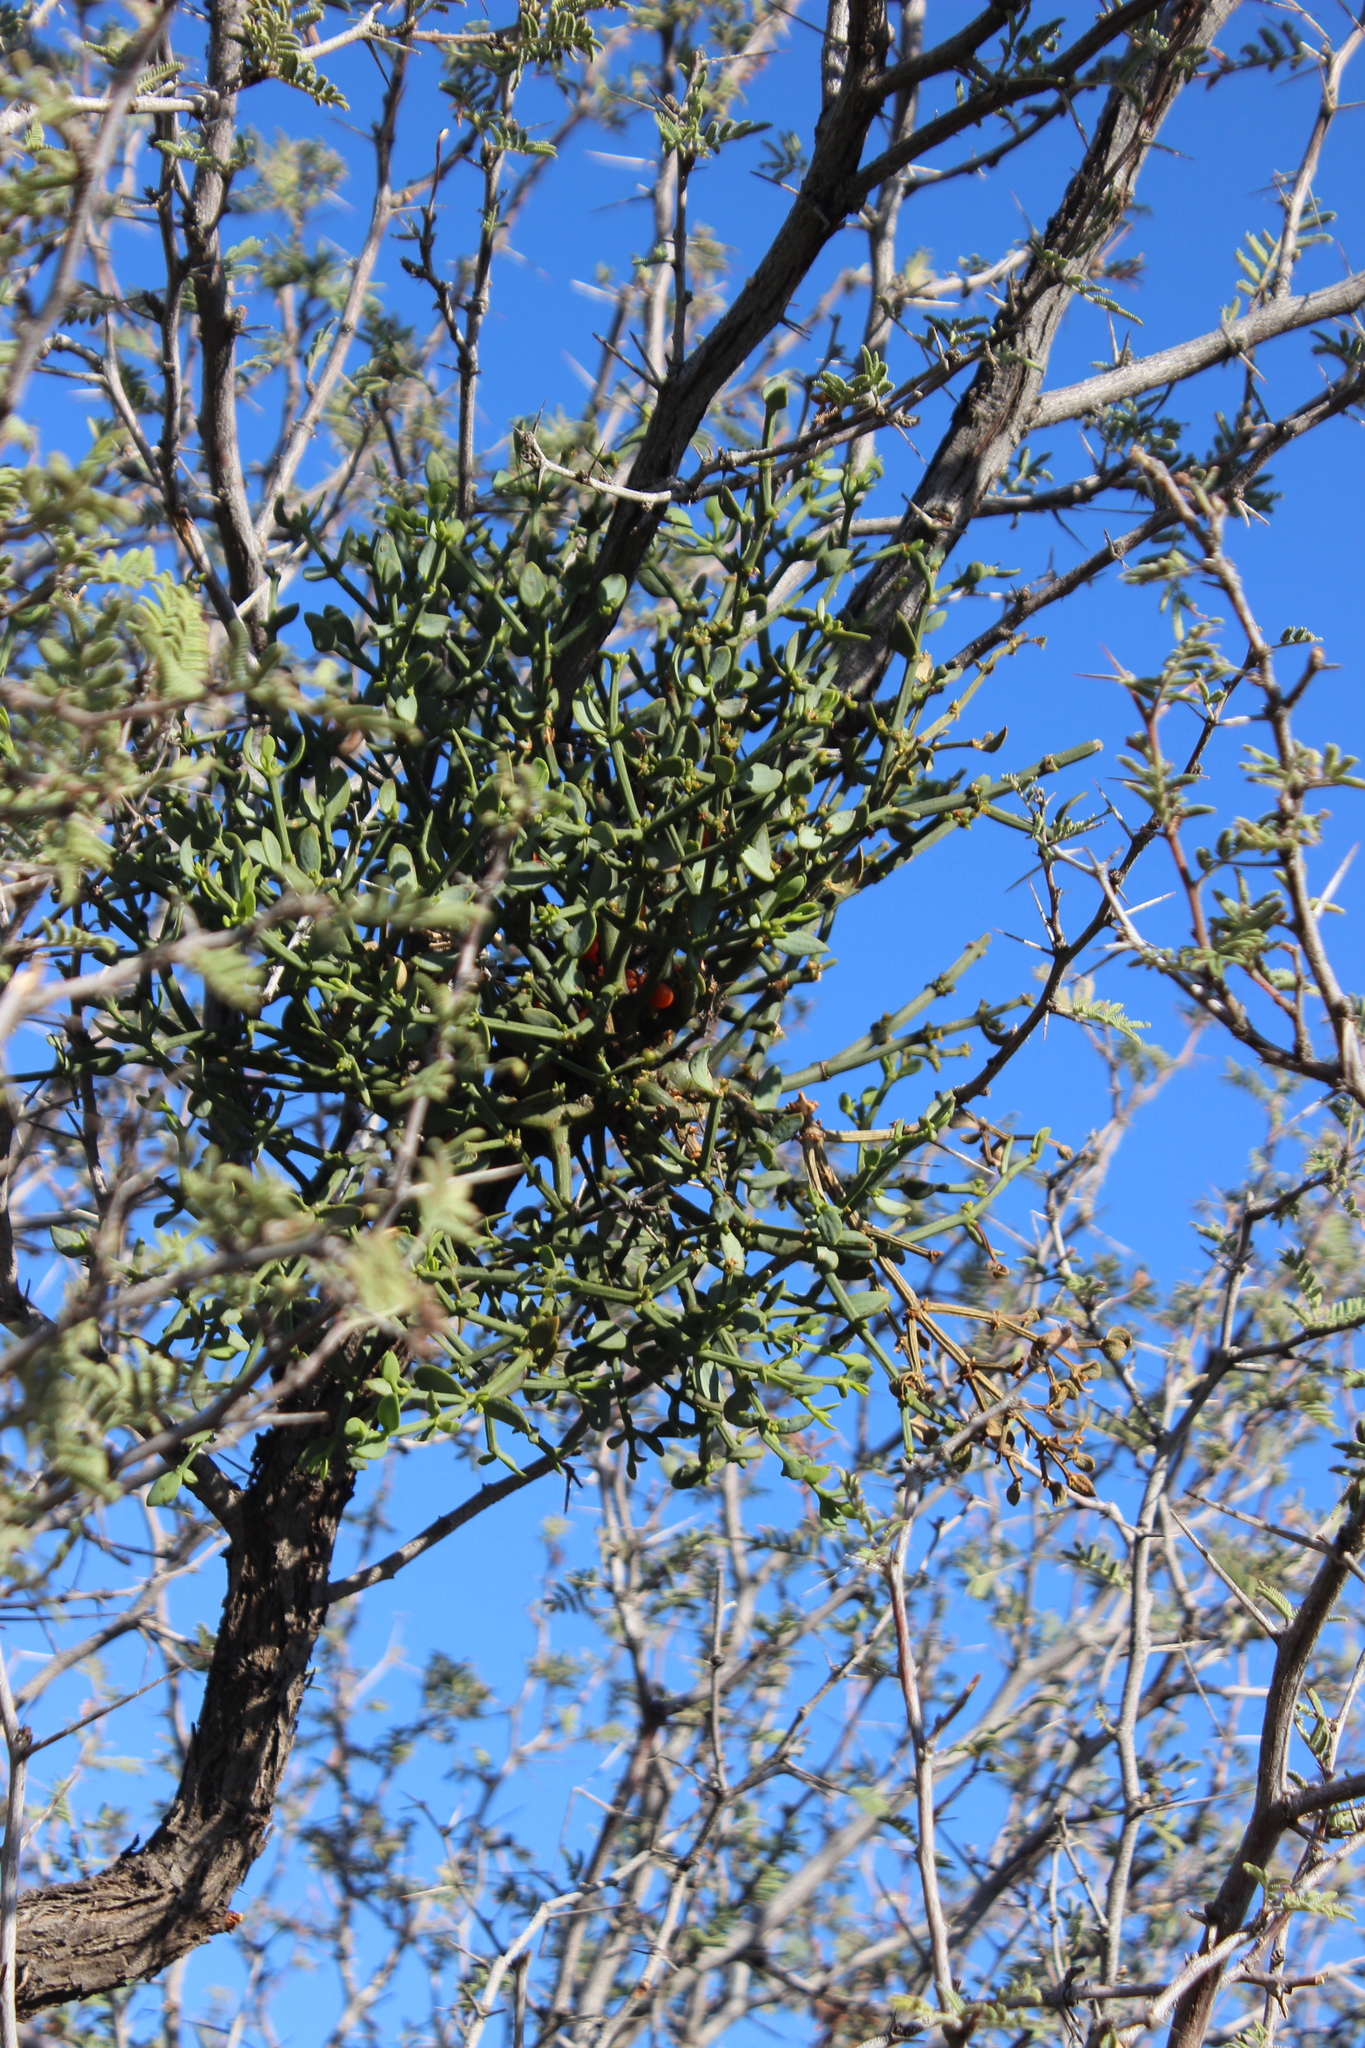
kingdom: Plantae
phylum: Tracheophyta
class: Magnoliopsida
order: Santalales
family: Viscaceae
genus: Viscum
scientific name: Viscum rotundifolium
